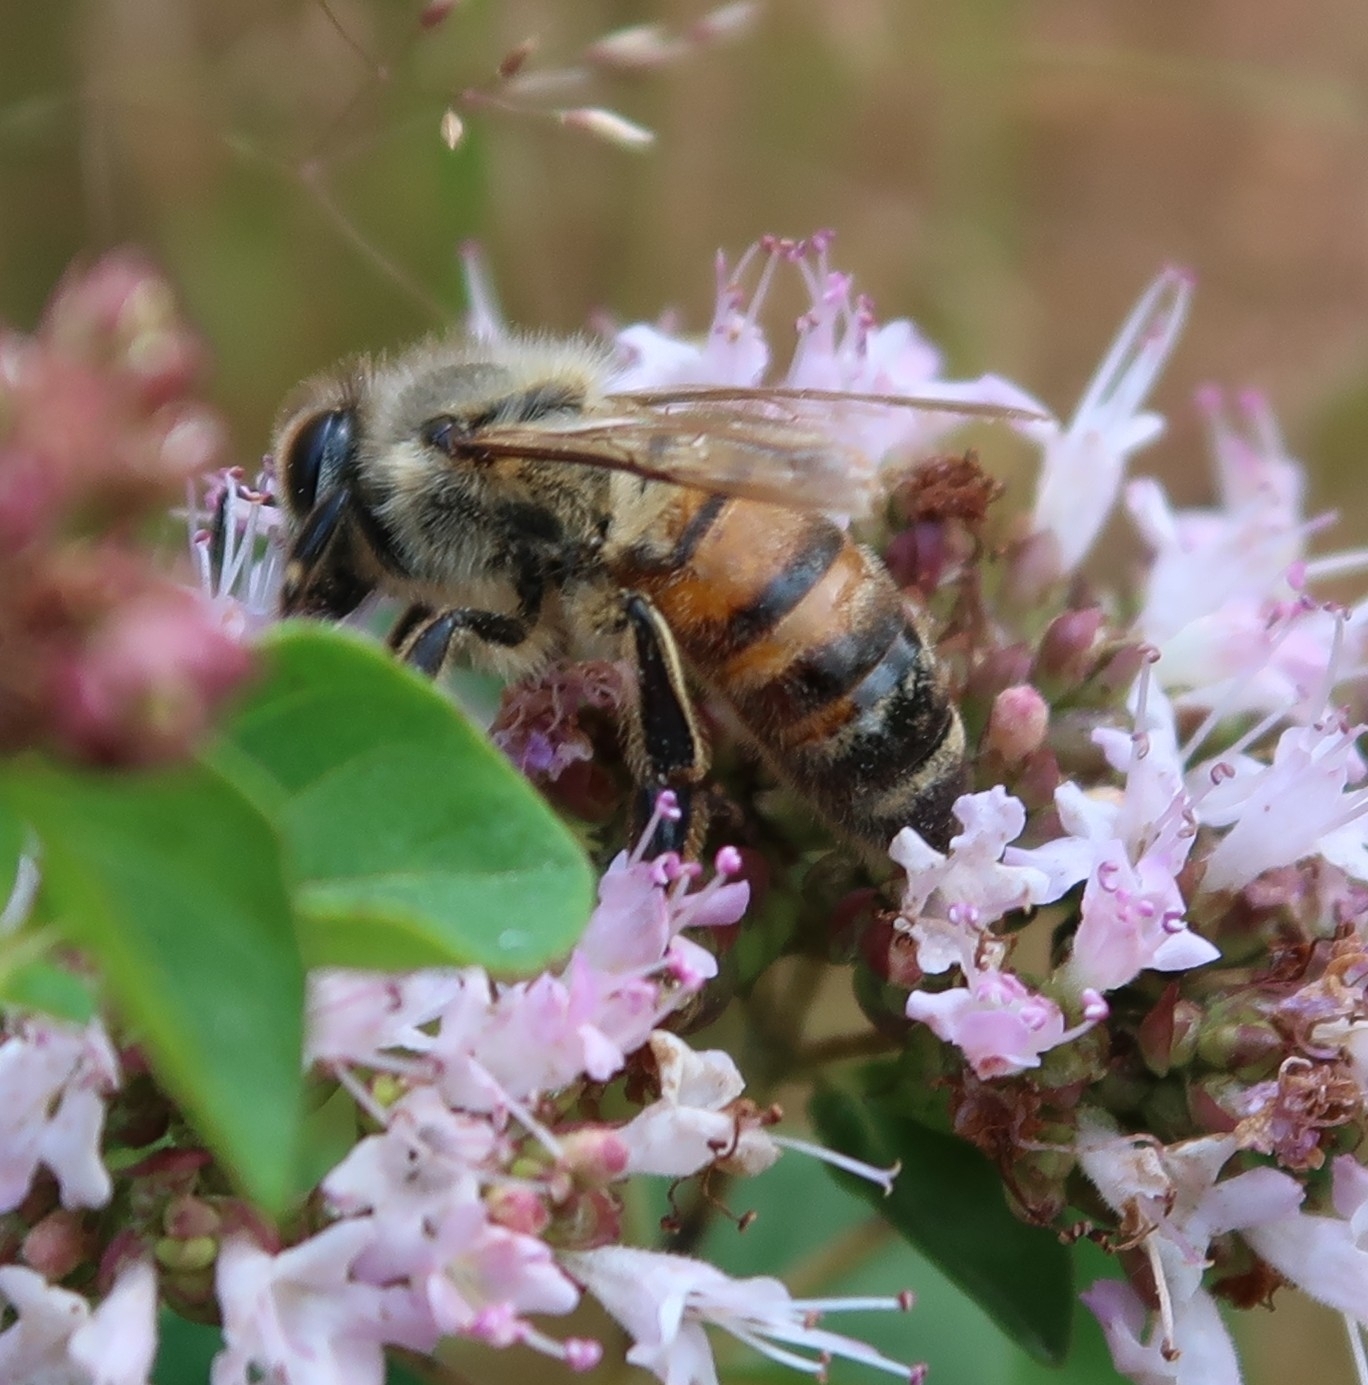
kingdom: Animalia
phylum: Arthropoda
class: Insecta
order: Hymenoptera
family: Apidae
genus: Apis
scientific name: Apis mellifera
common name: Honey bee
